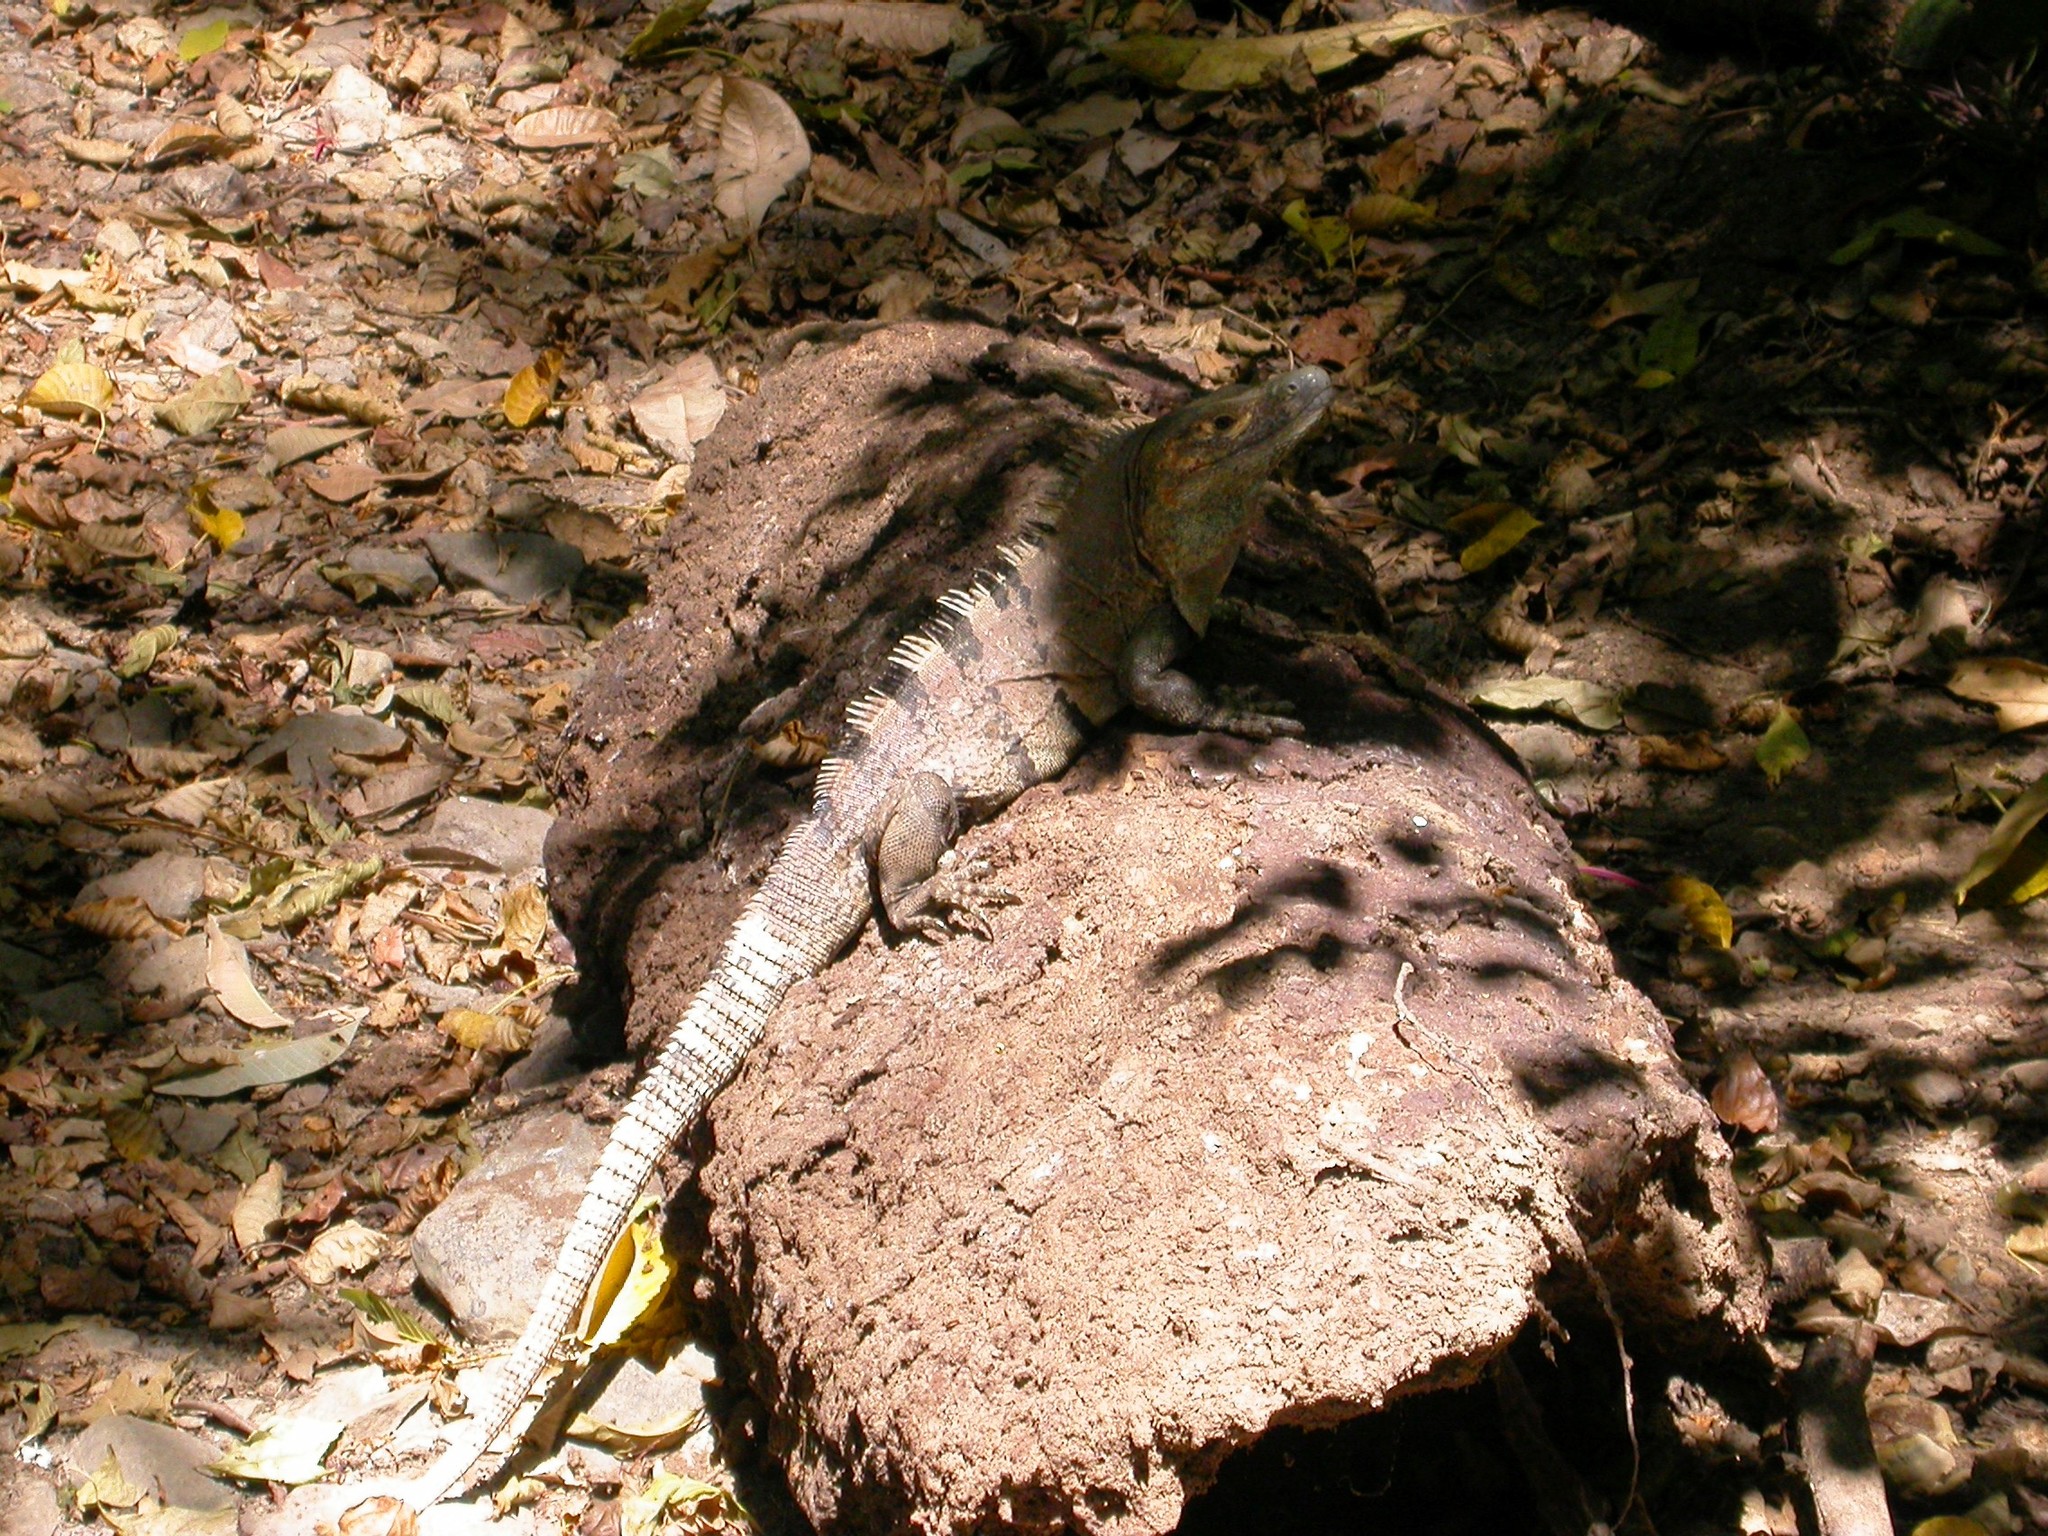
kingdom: Animalia
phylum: Chordata
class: Squamata
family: Iguanidae
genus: Ctenosaura
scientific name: Ctenosaura similis
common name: Black spiny-tailed iguana
